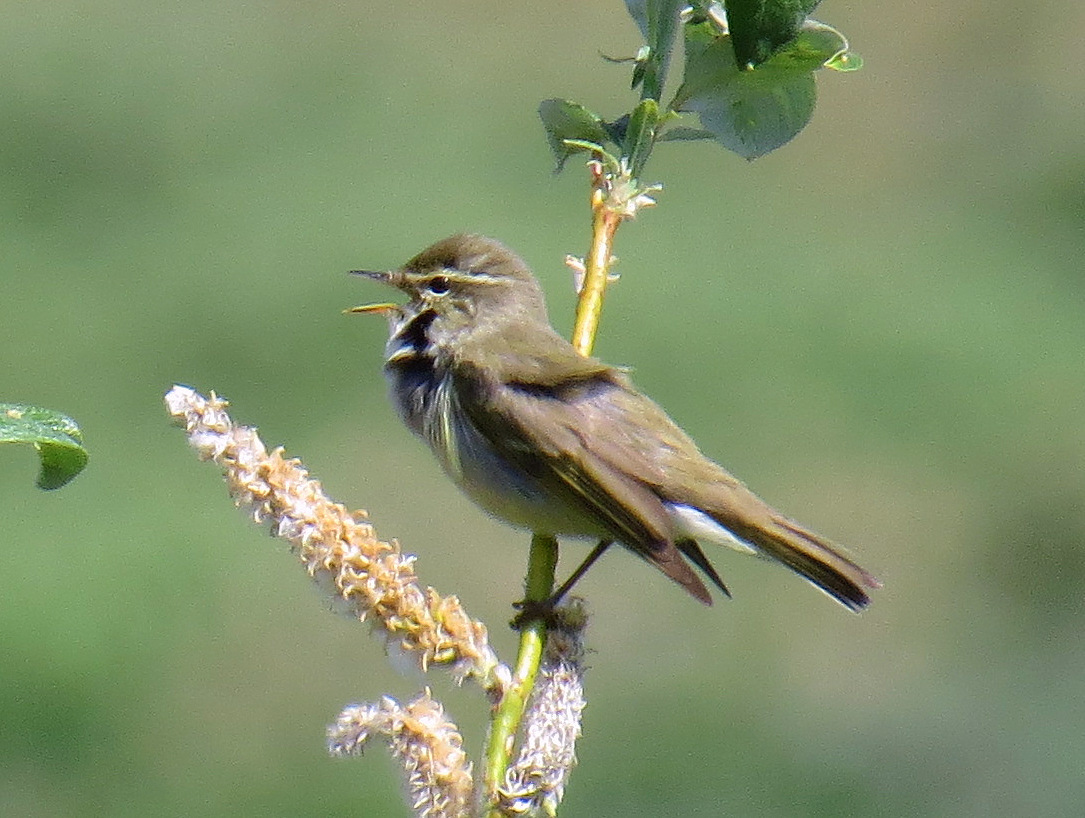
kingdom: Animalia
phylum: Chordata
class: Aves
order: Passeriformes
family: Phylloscopidae
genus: Phylloscopus
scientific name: Phylloscopus borealis
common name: Arctic warbler
